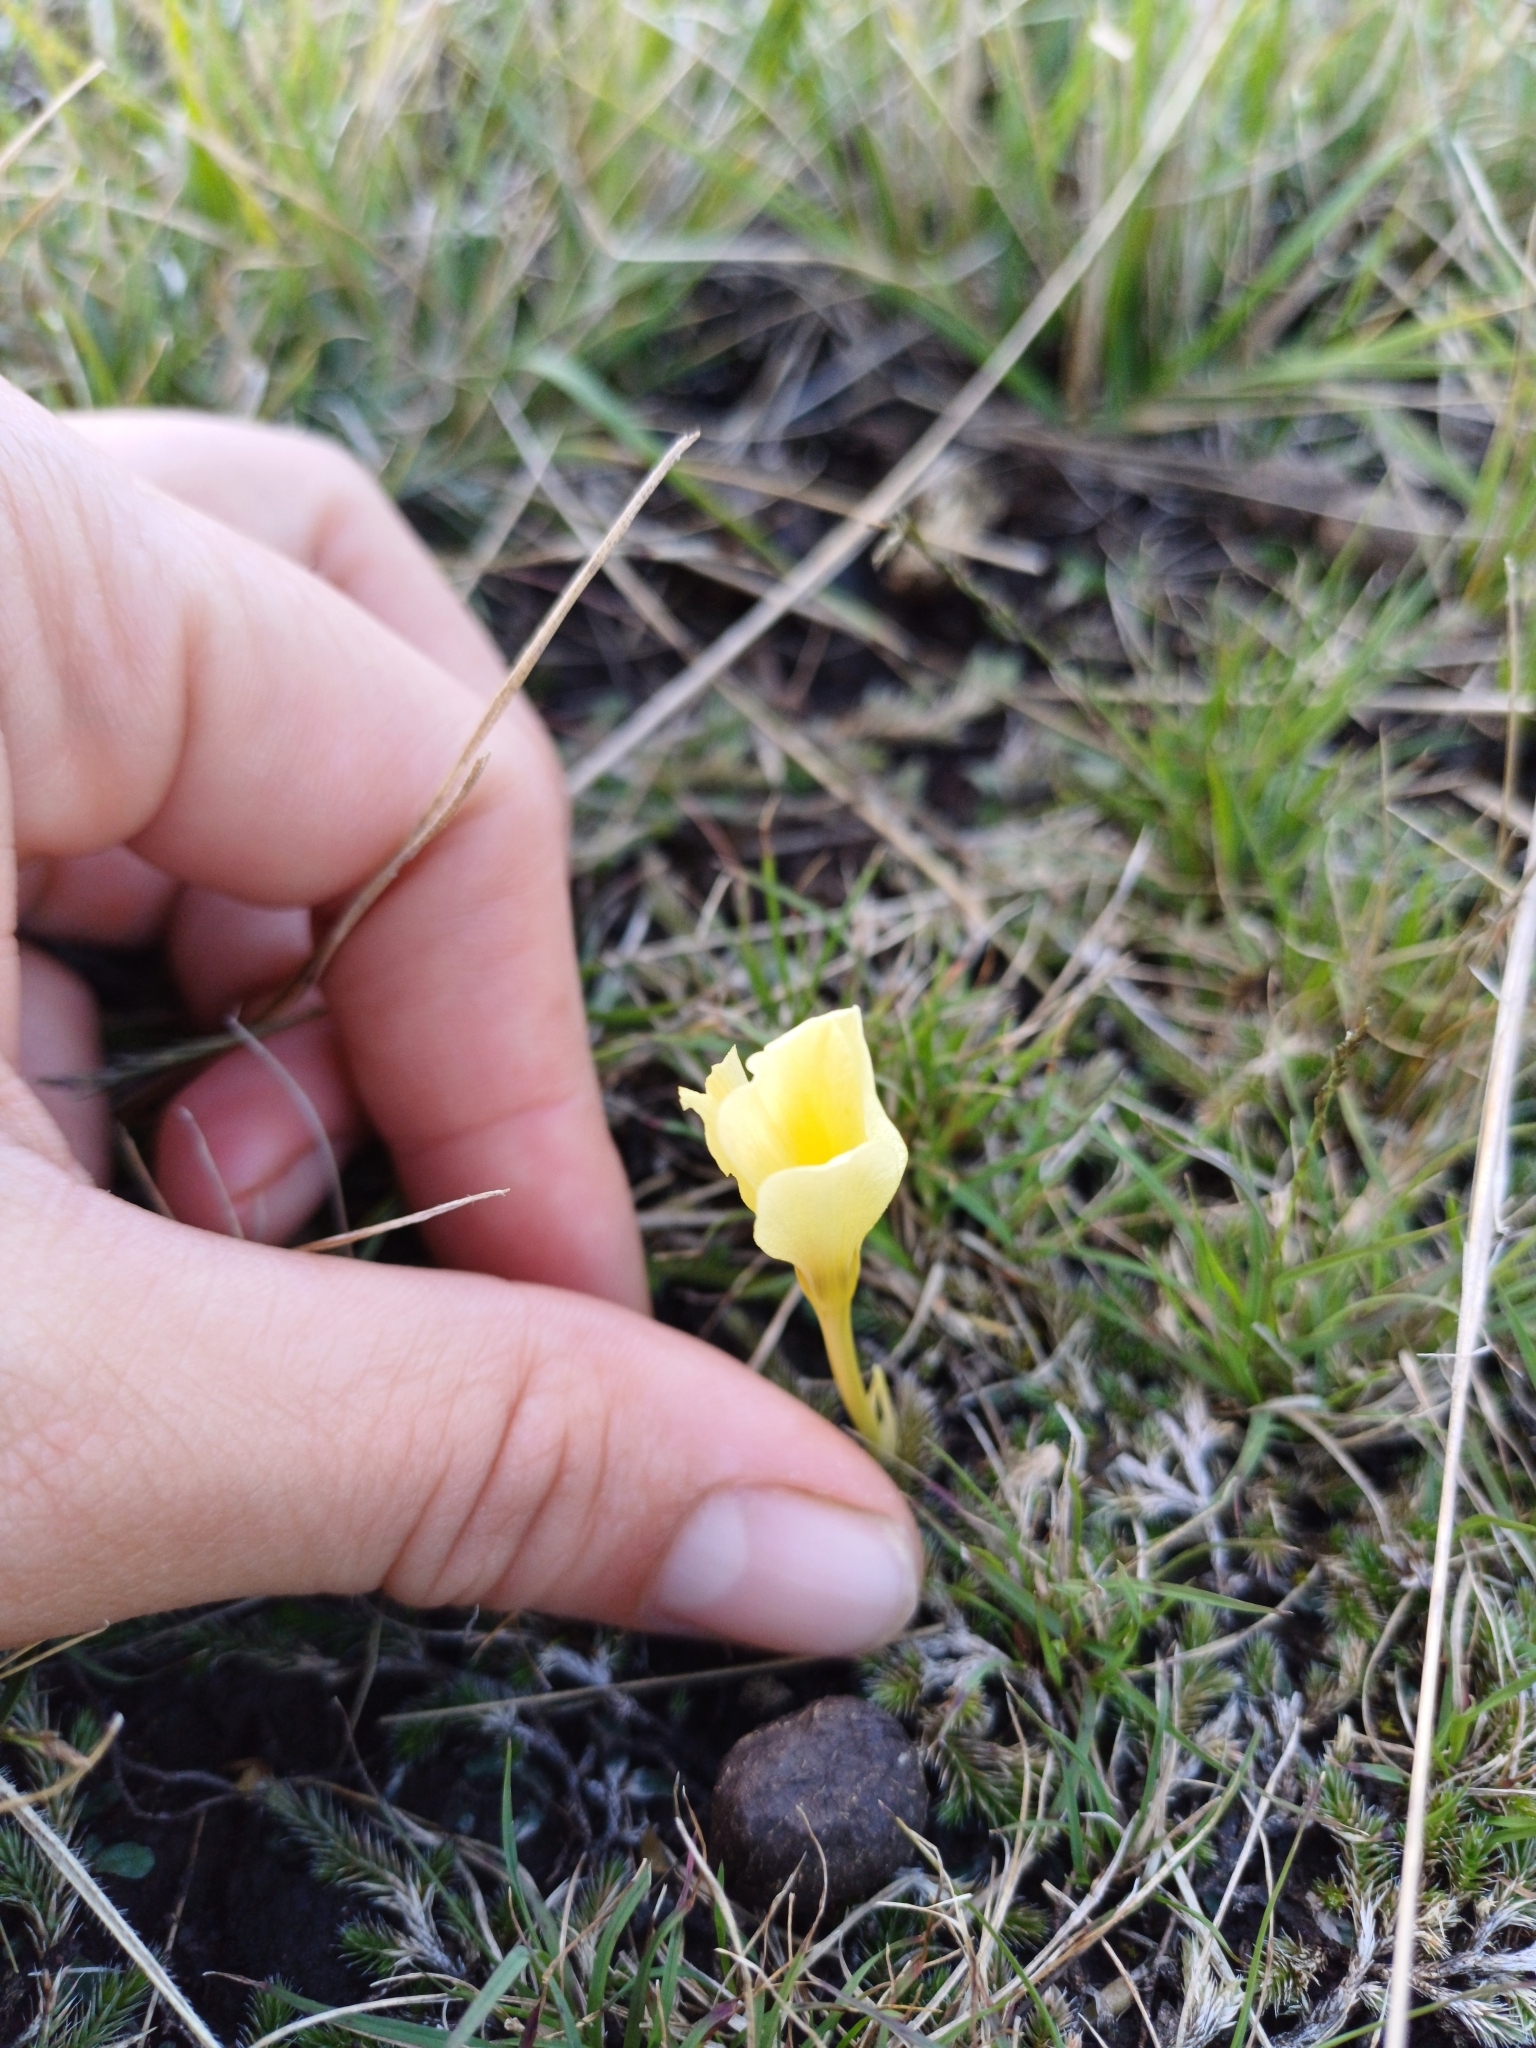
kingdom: Plantae
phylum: Tracheophyta
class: Liliopsida
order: Asparagales
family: Amaryllidaceae
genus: Zephyranthes
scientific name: Zephyranthes americana
